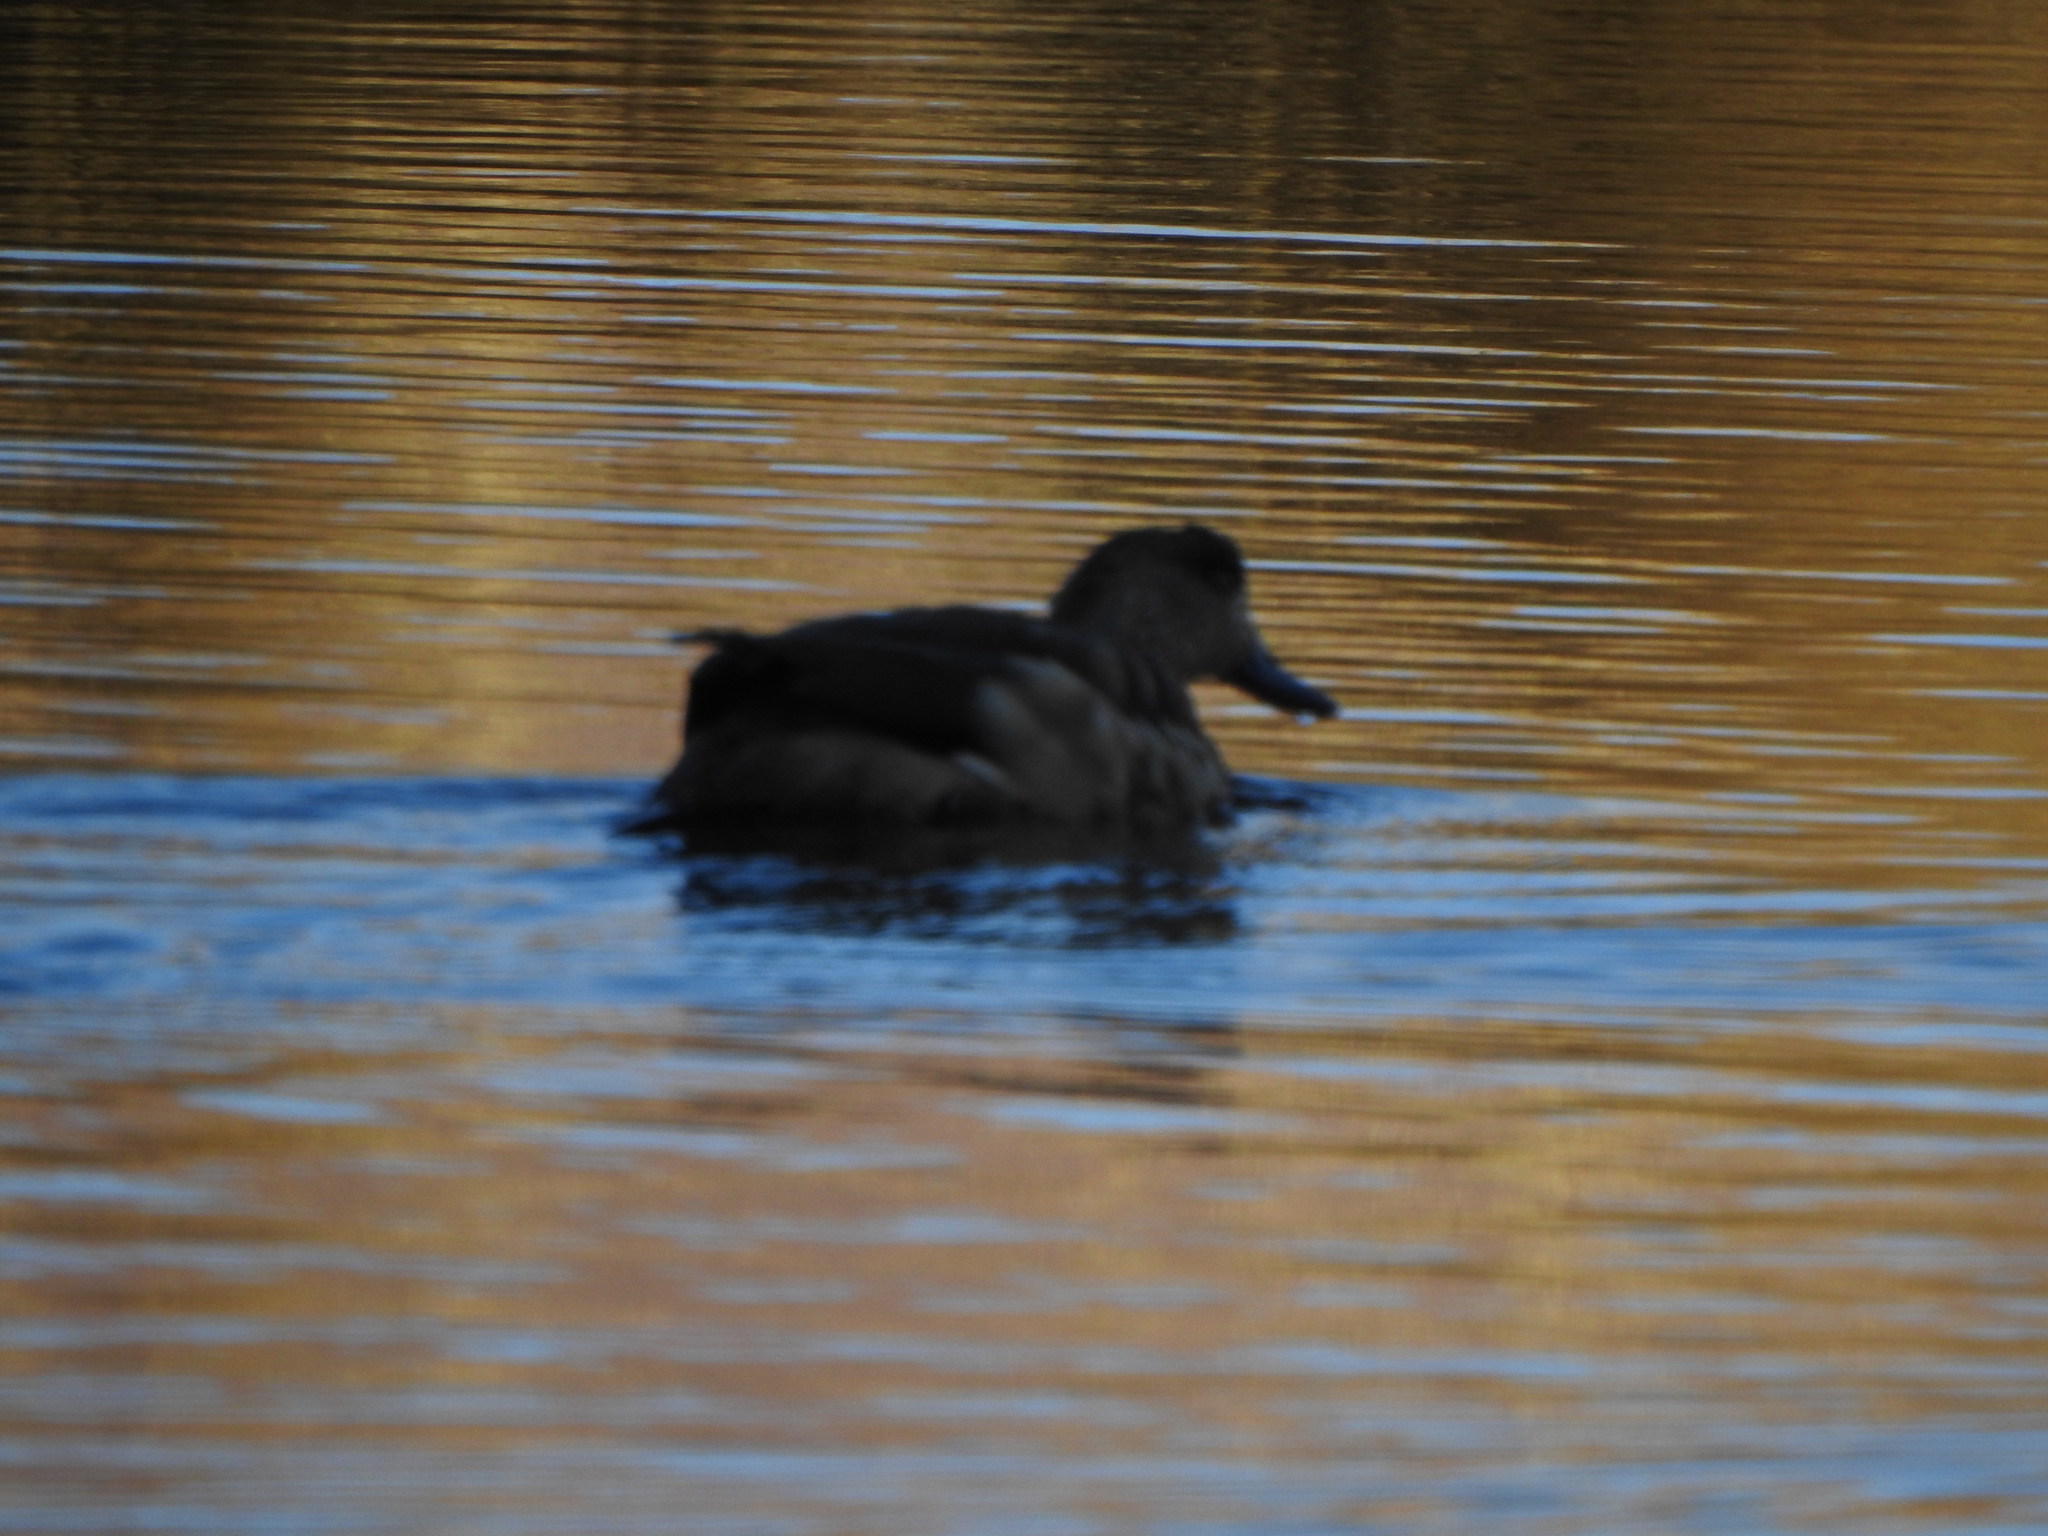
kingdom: Animalia
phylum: Chordata
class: Aves
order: Anseriformes
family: Anatidae
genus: Lophonetta
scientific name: Lophonetta specularioides
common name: Crested duck
